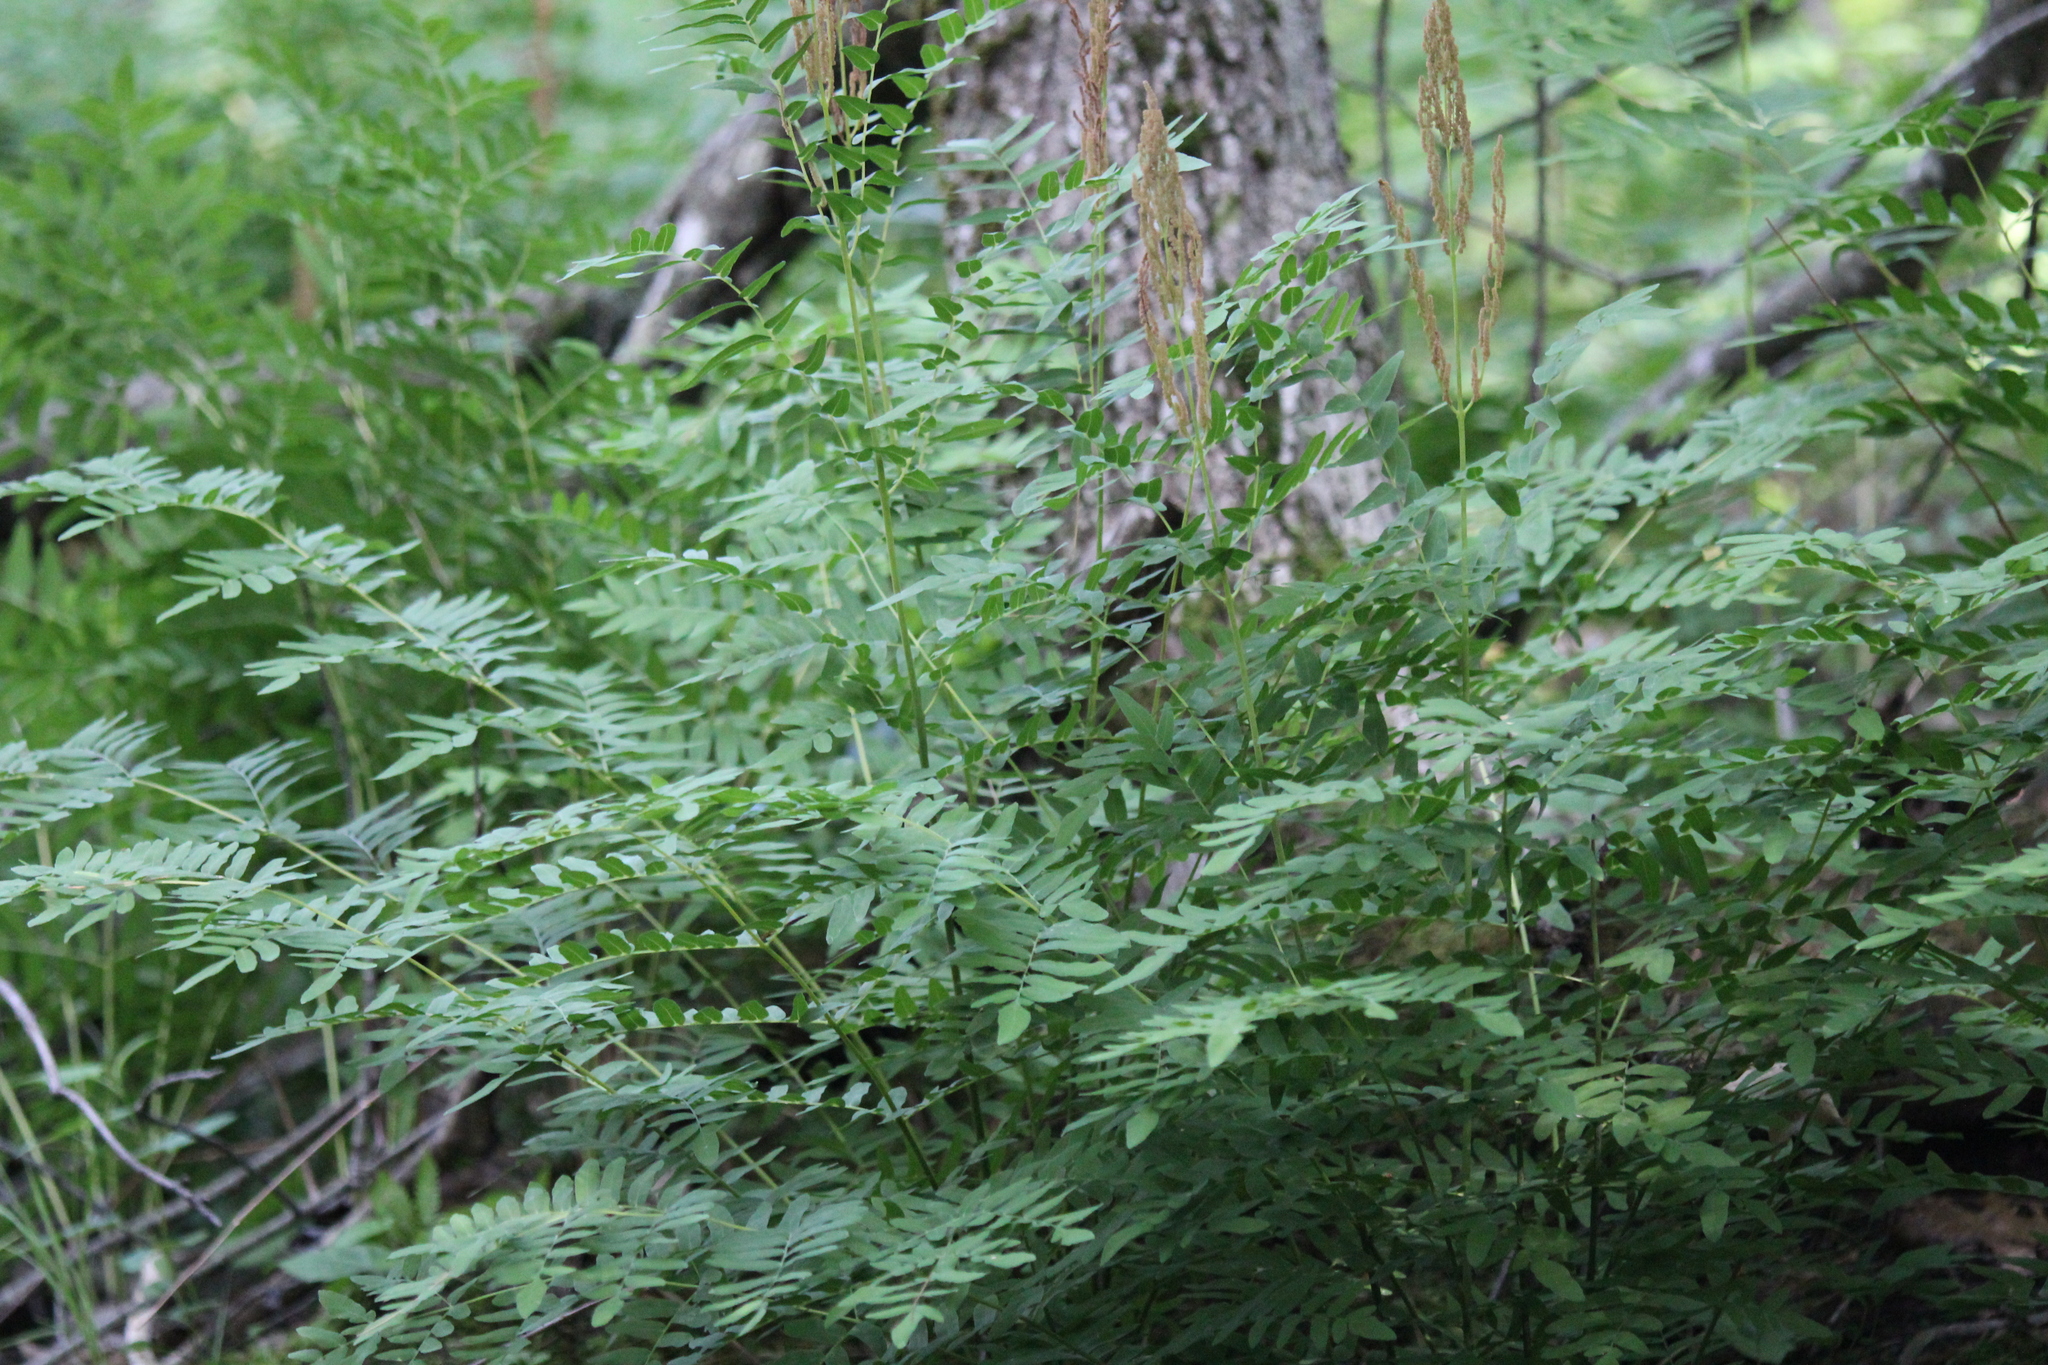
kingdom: Plantae
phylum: Tracheophyta
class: Polypodiopsida
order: Osmundales
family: Osmundaceae
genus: Osmunda
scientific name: Osmunda spectabilis
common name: American royal fern
